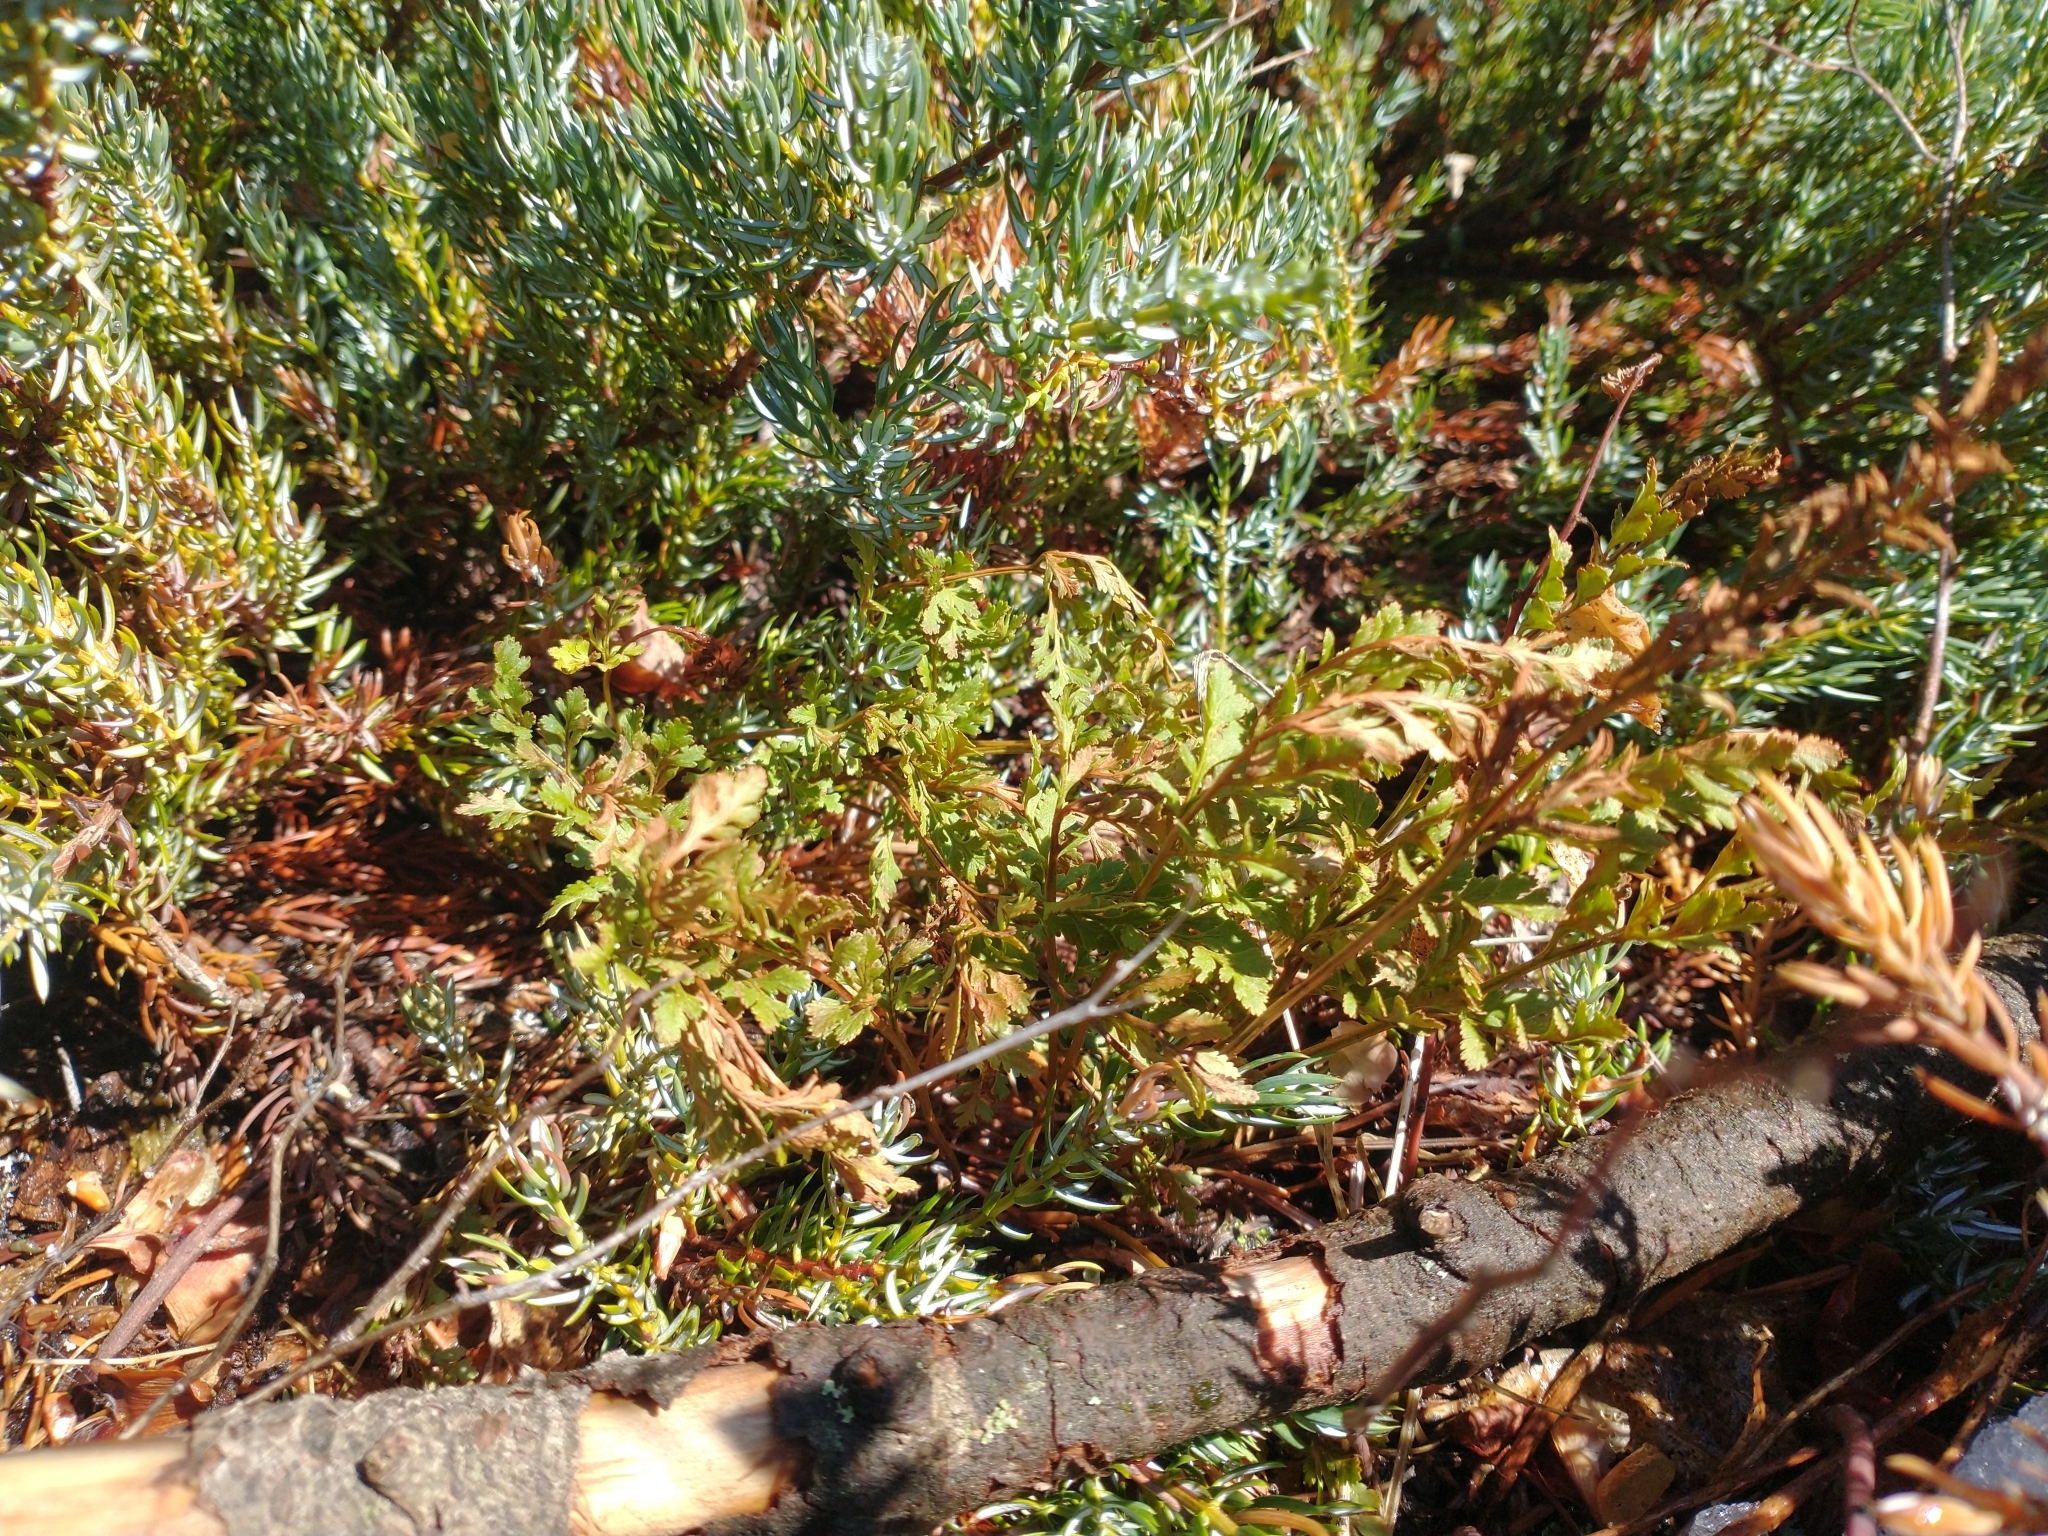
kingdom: Plantae
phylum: Tracheophyta
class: Polypodiopsida
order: Polypodiales
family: Pteridaceae
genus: Cryptogramma
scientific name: Cryptogramma acrostichoides
